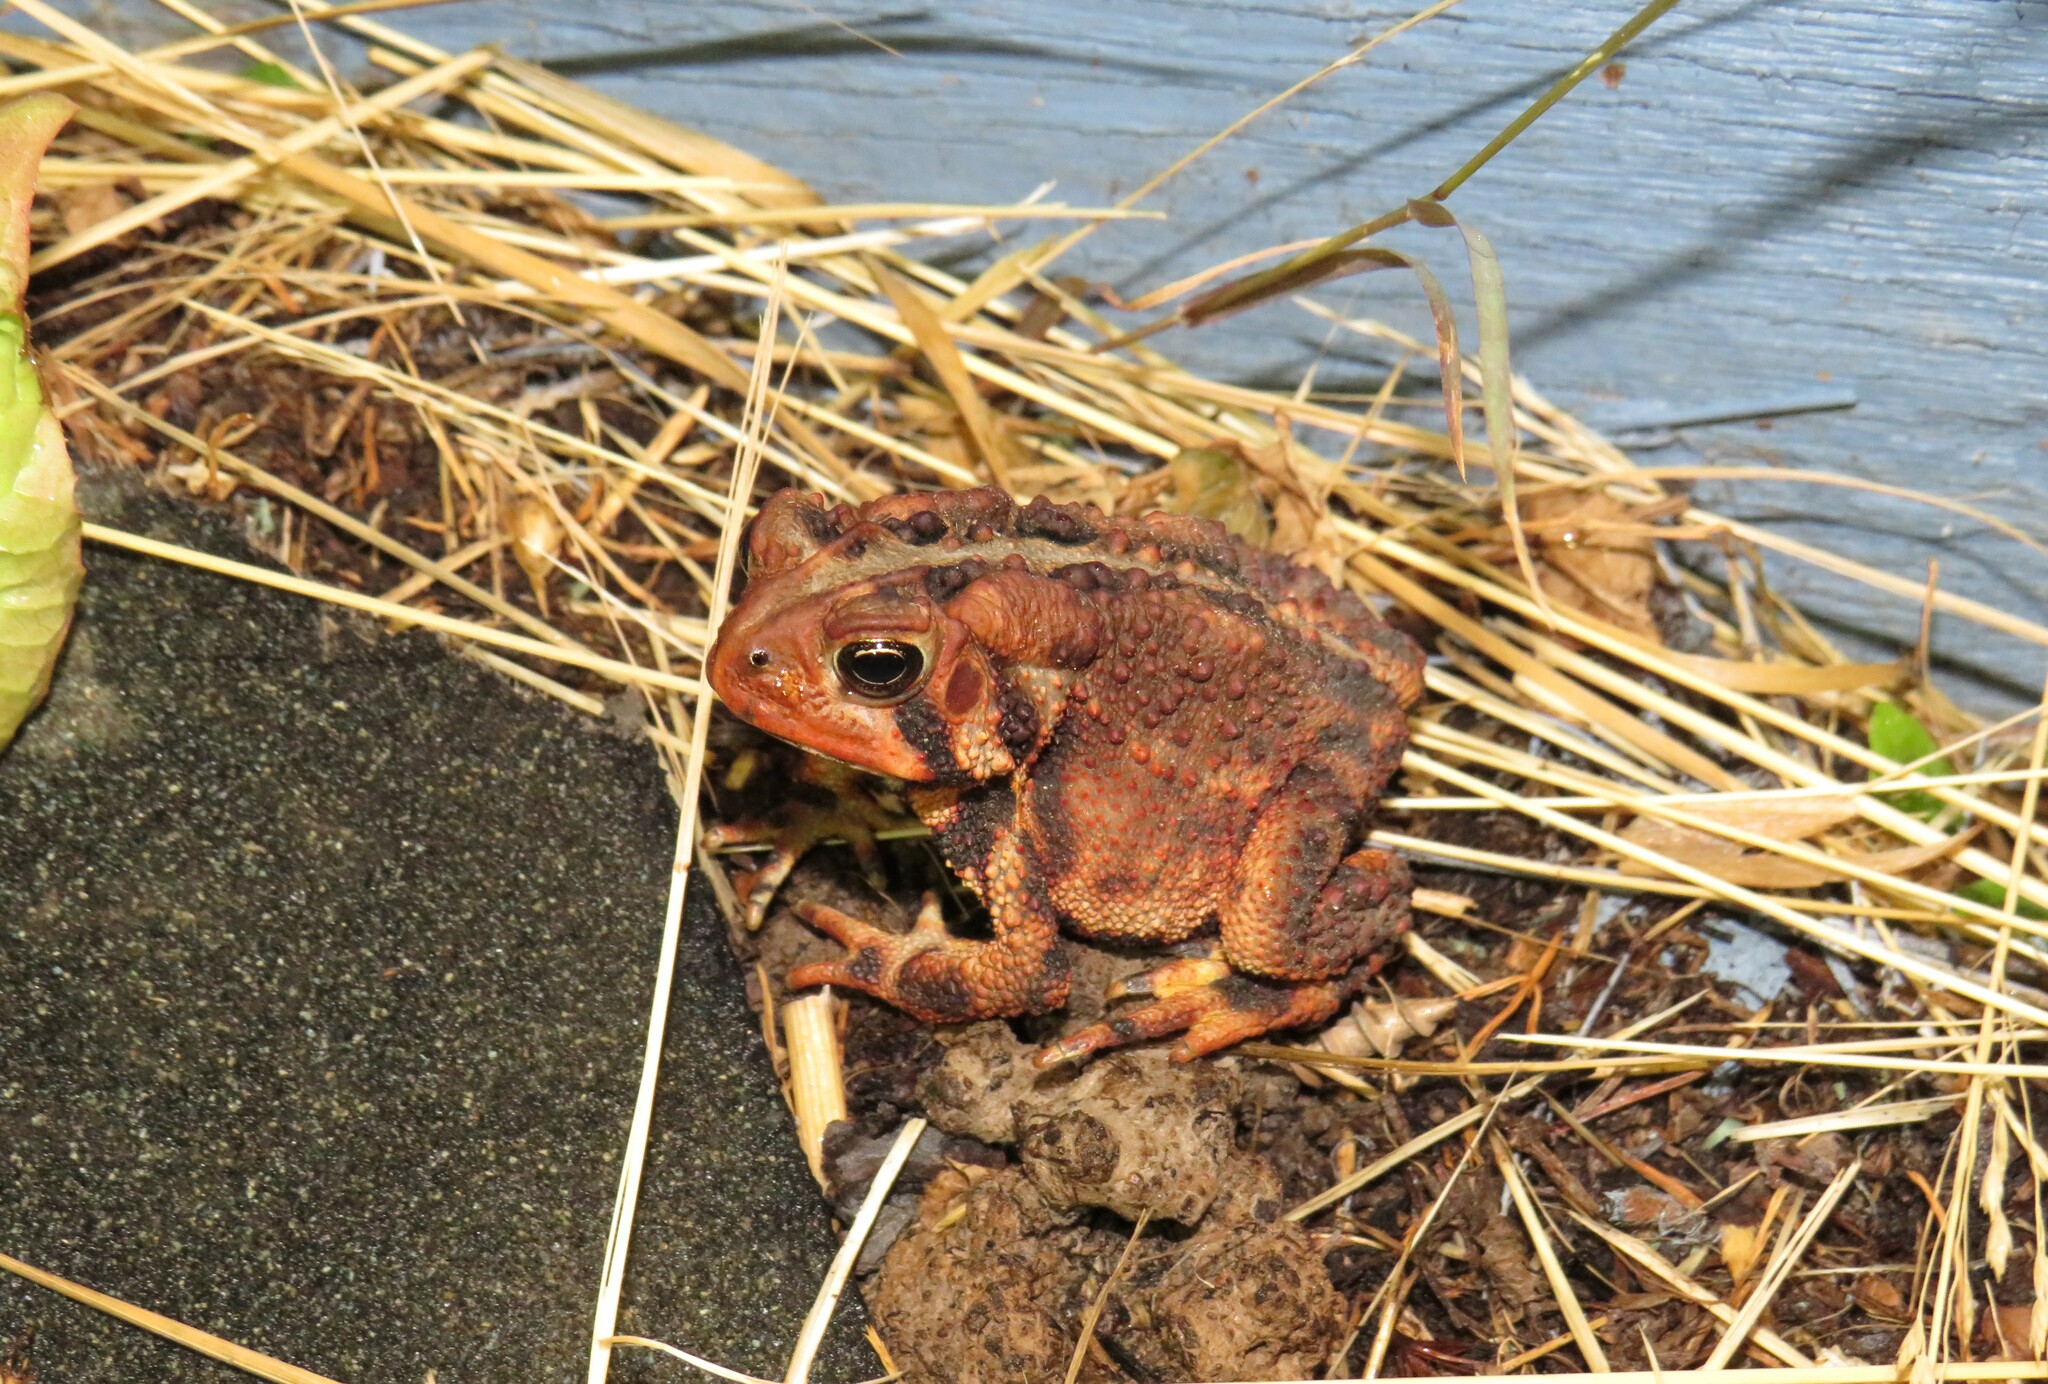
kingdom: Animalia
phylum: Chordata
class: Amphibia
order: Anura
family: Bufonidae
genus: Anaxyrus
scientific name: Anaxyrus americanus
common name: American toad
